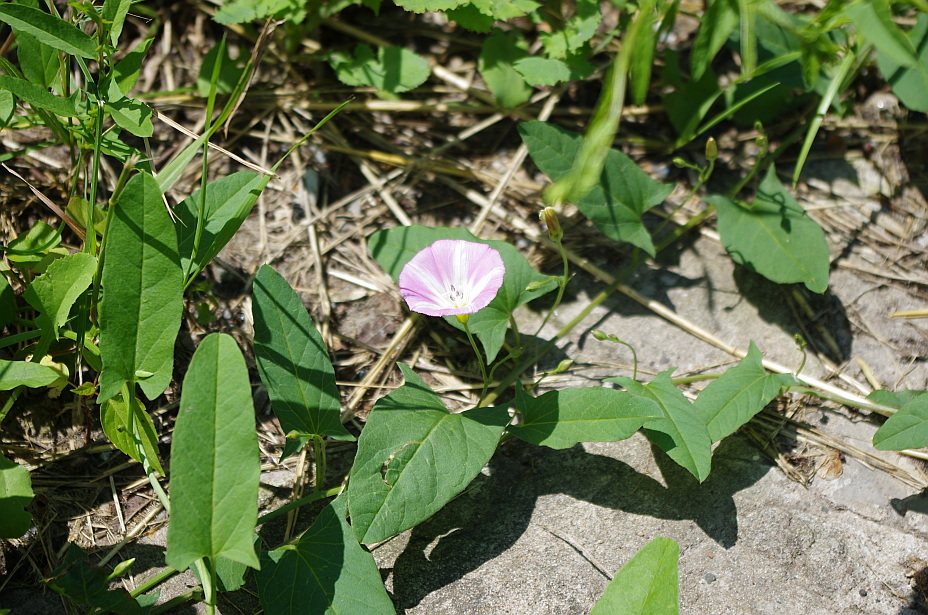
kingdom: Plantae
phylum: Tracheophyta
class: Magnoliopsida
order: Solanales
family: Convolvulaceae
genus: Convolvulus
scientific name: Convolvulus arvensis
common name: Field bindweed
